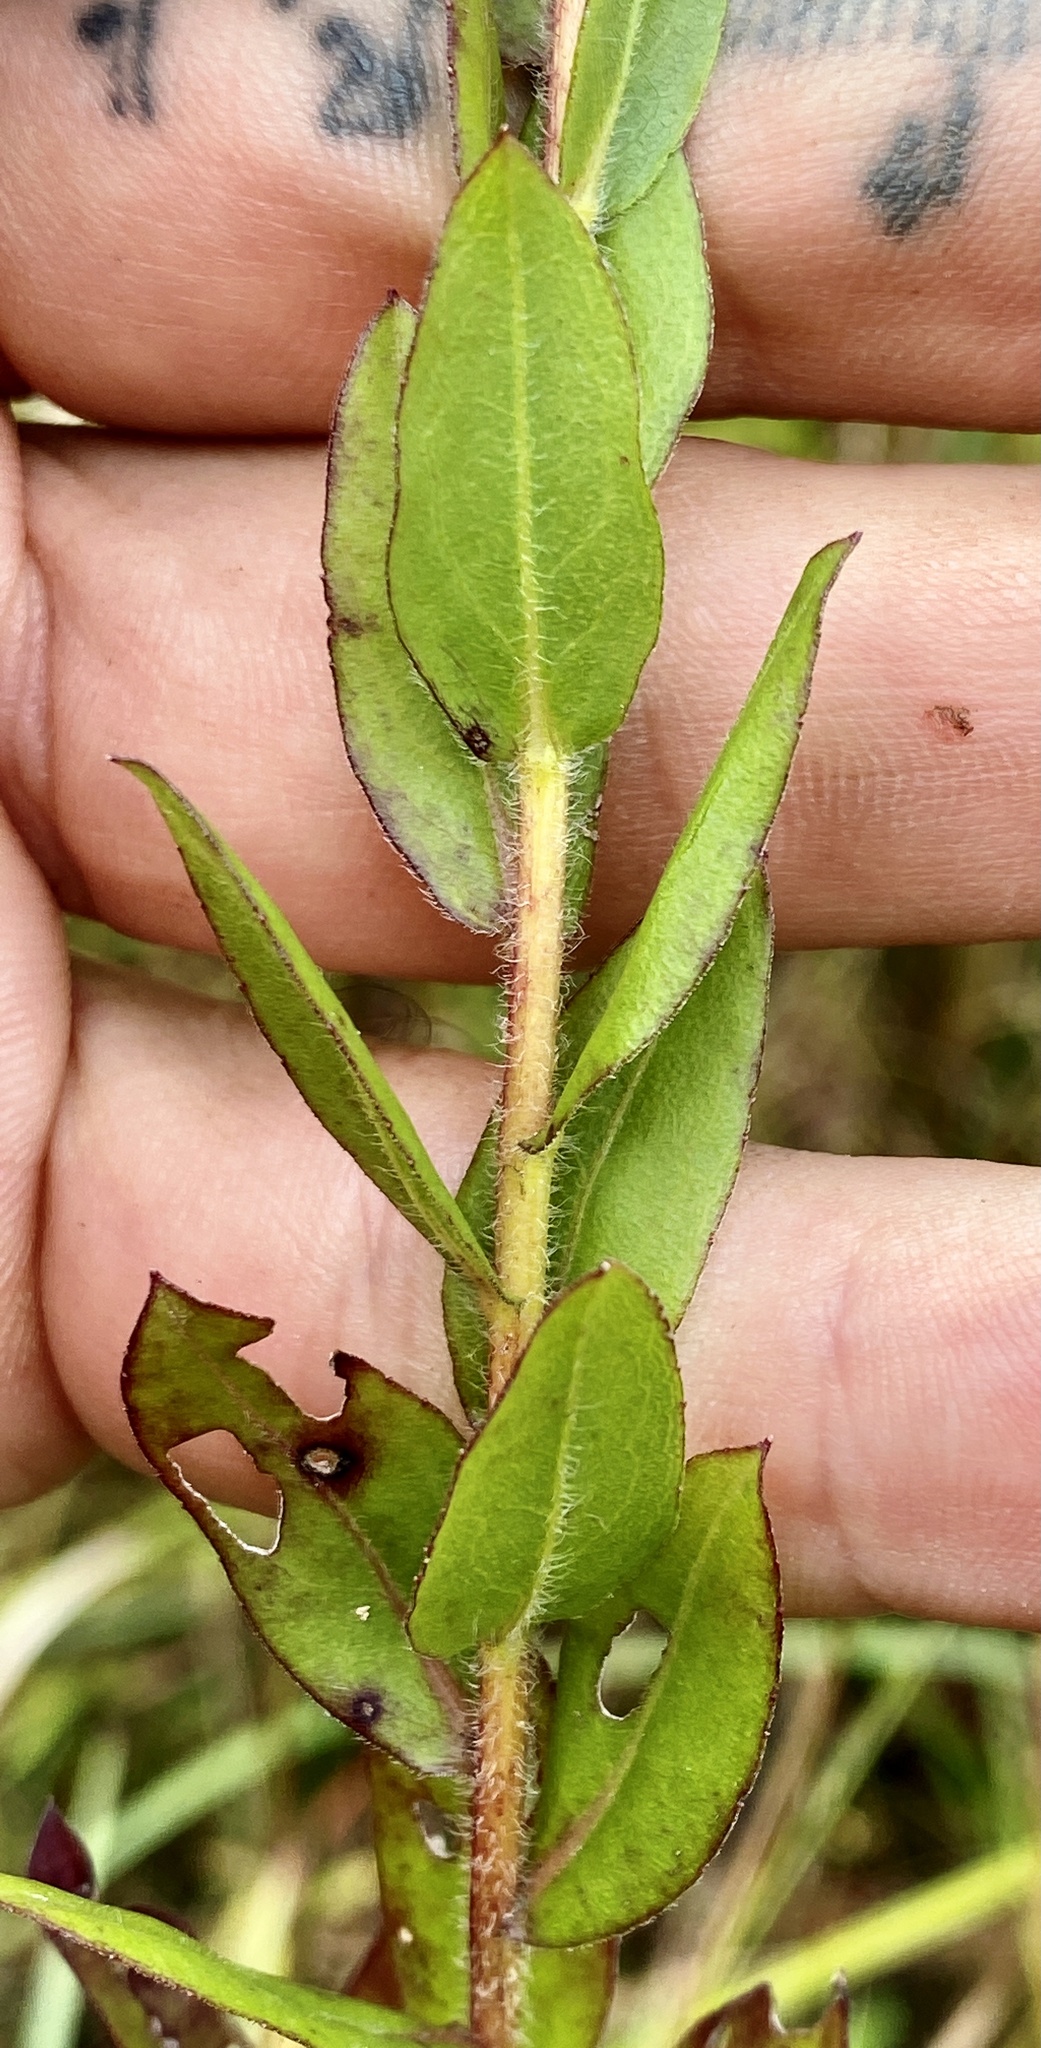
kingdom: Plantae
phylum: Tracheophyta
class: Magnoliopsida
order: Asterales
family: Asteraceae
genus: Solidago
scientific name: Solidago fistulosa
